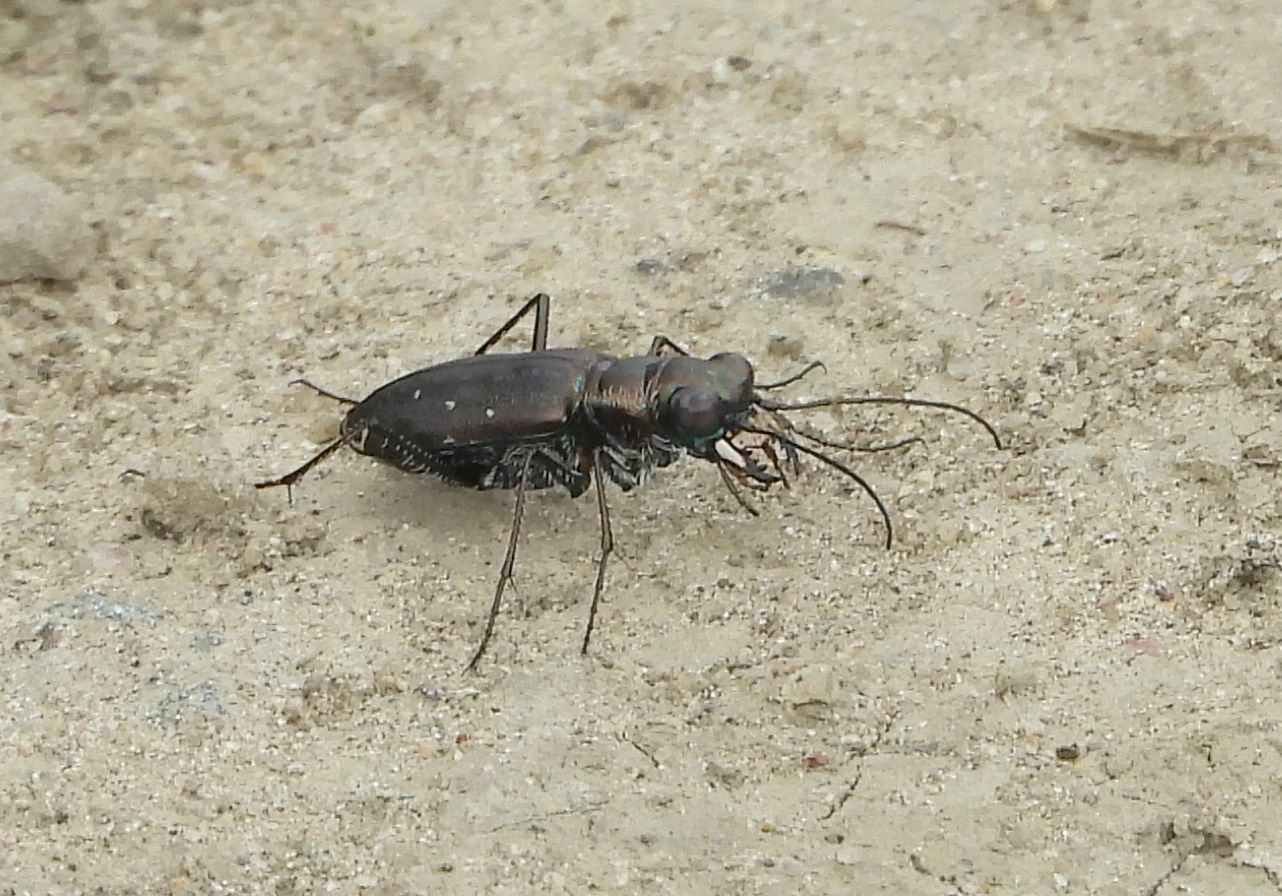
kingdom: Animalia
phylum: Arthropoda
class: Insecta
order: Coleoptera
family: Carabidae
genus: Cicindela
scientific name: Cicindela punctulata
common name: Punctured tiger beetle
